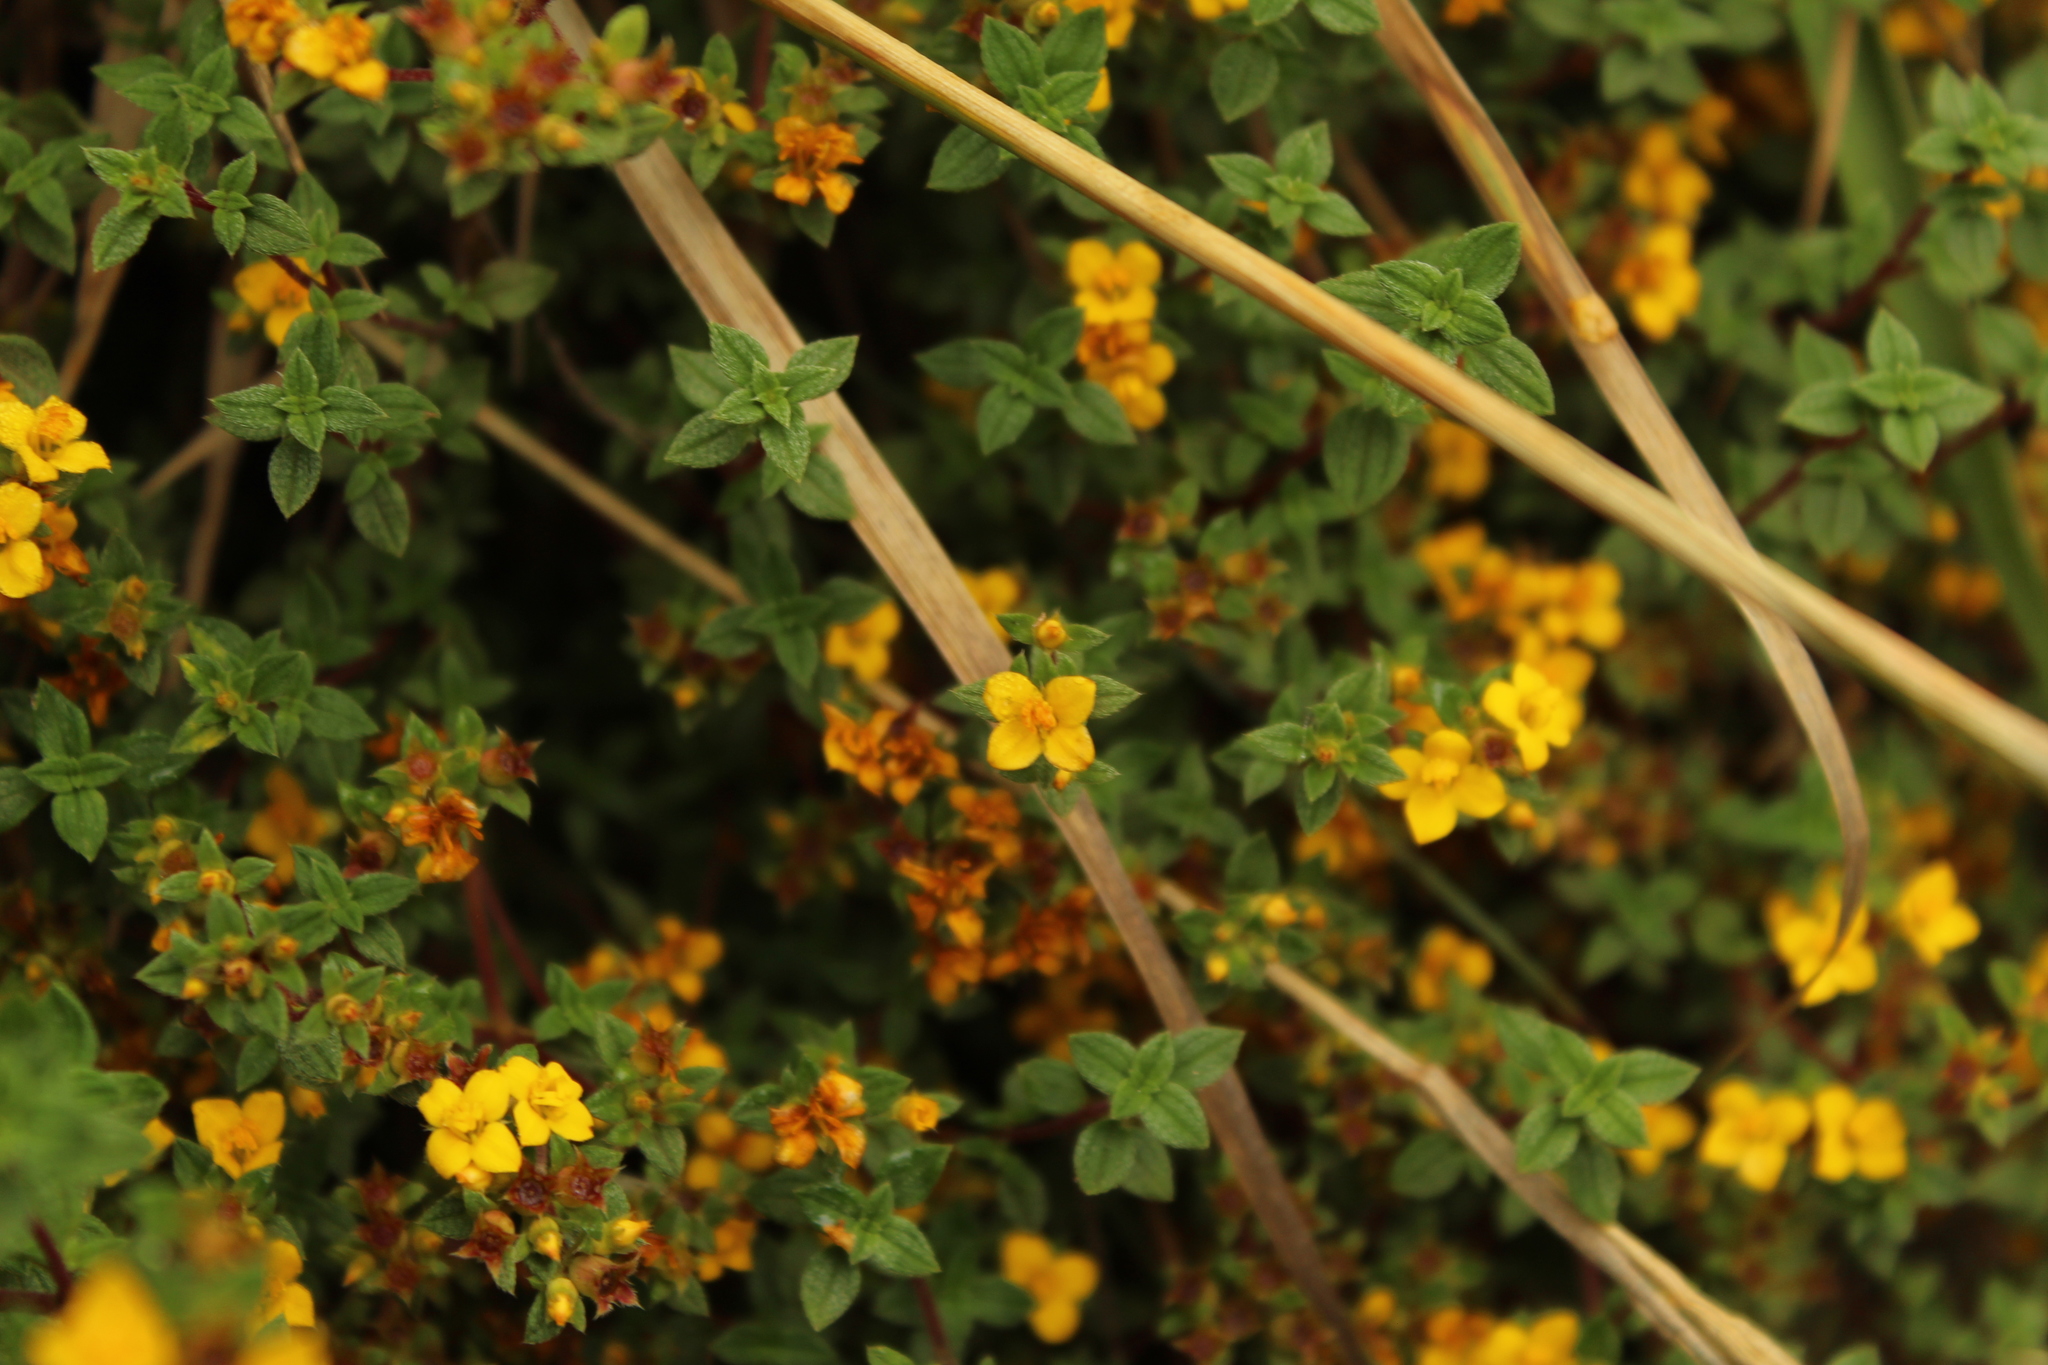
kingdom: Plantae
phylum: Tracheophyta
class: Magnoliopsida
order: Myrtales
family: Melastomataceae
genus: Chaetolepis
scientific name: Chaetolepis microphylla
